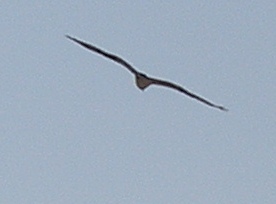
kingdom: Animalia
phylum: Chordata
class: Aves
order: Accipitriformes
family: Pandionidae
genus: Pandion
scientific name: Pandion haliaetus
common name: Osprey
